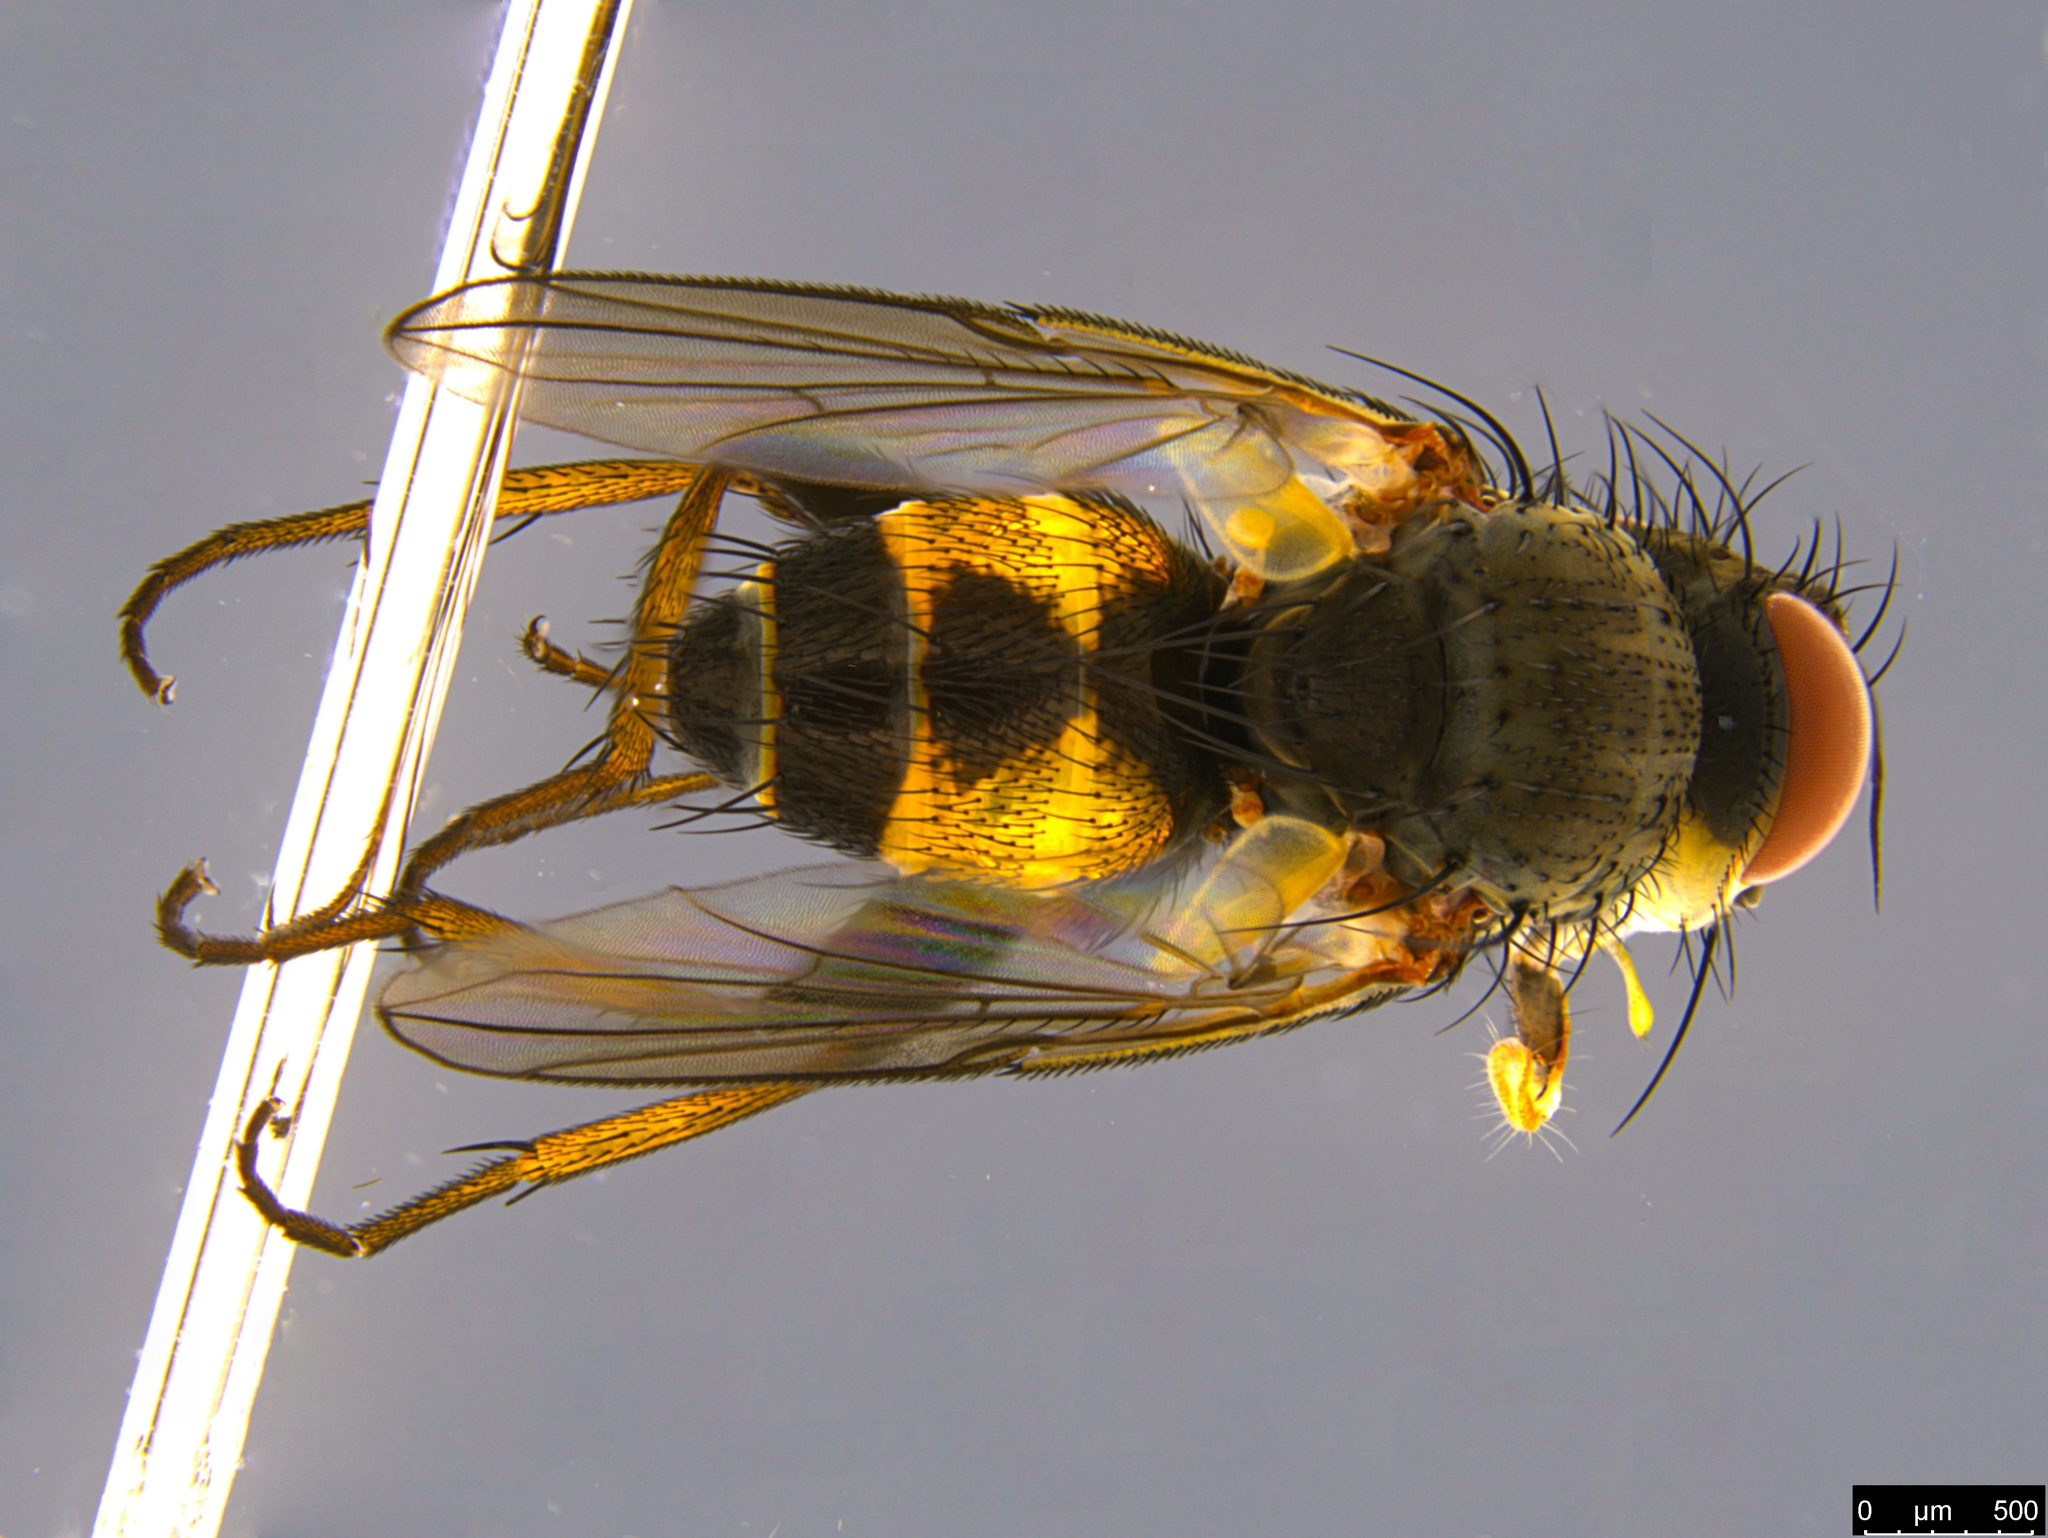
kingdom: Animalia
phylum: Arthropoda
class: Insecta
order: Diptera
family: Tachinidae
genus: Ceromya
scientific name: Ceromya fergusoni
